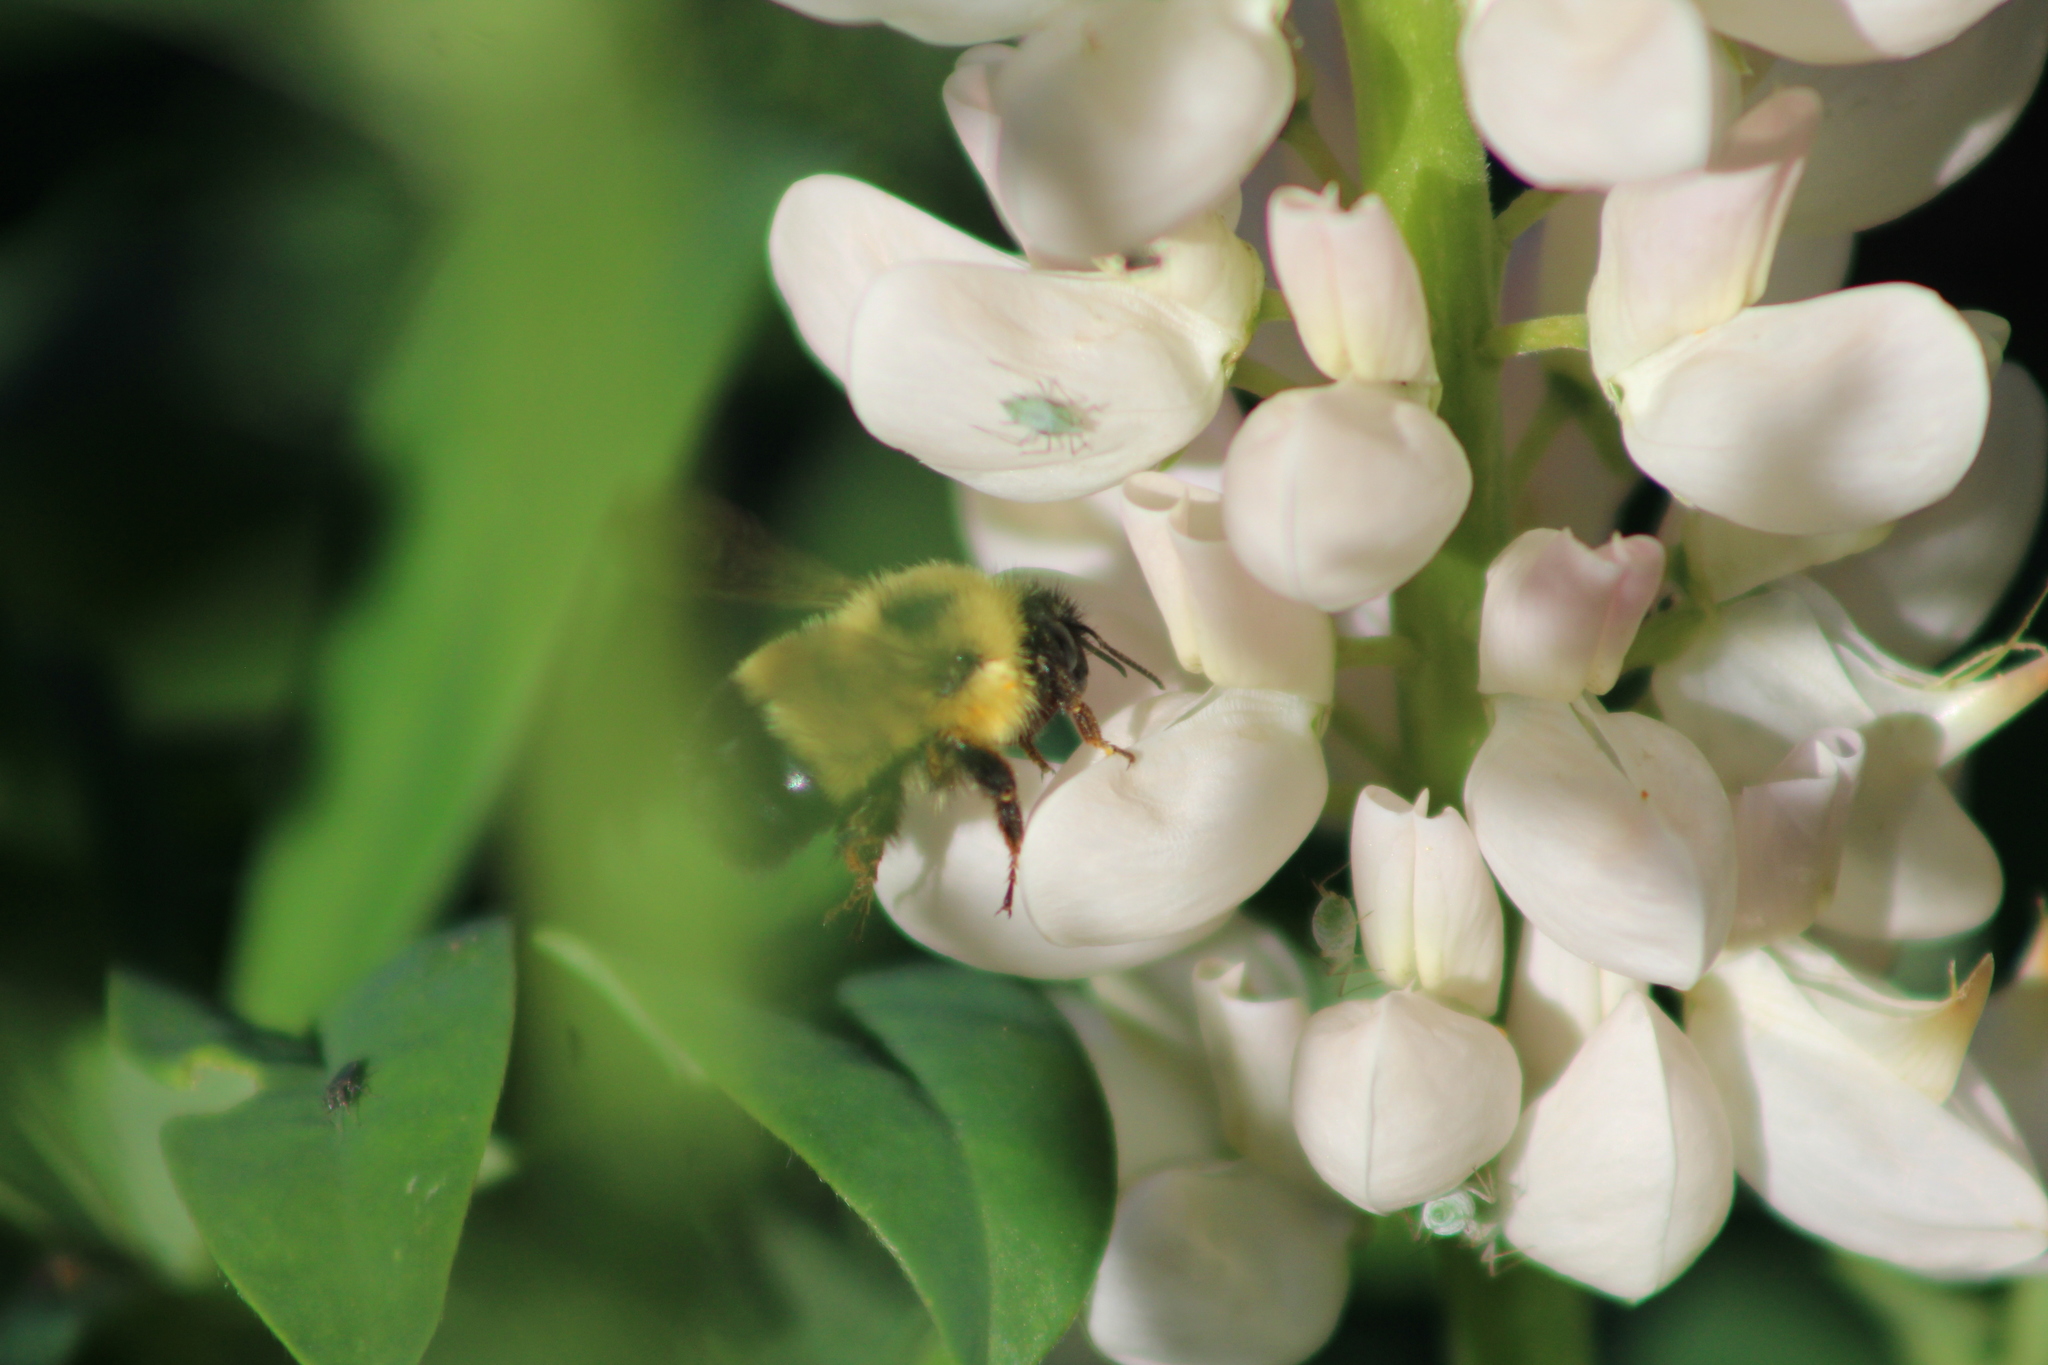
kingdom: Animalia
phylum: Arthropoda
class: Insecta
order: Hymenoptera
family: Apidae
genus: Bombus
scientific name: Bombus vagans
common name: Half-black bumble bee
